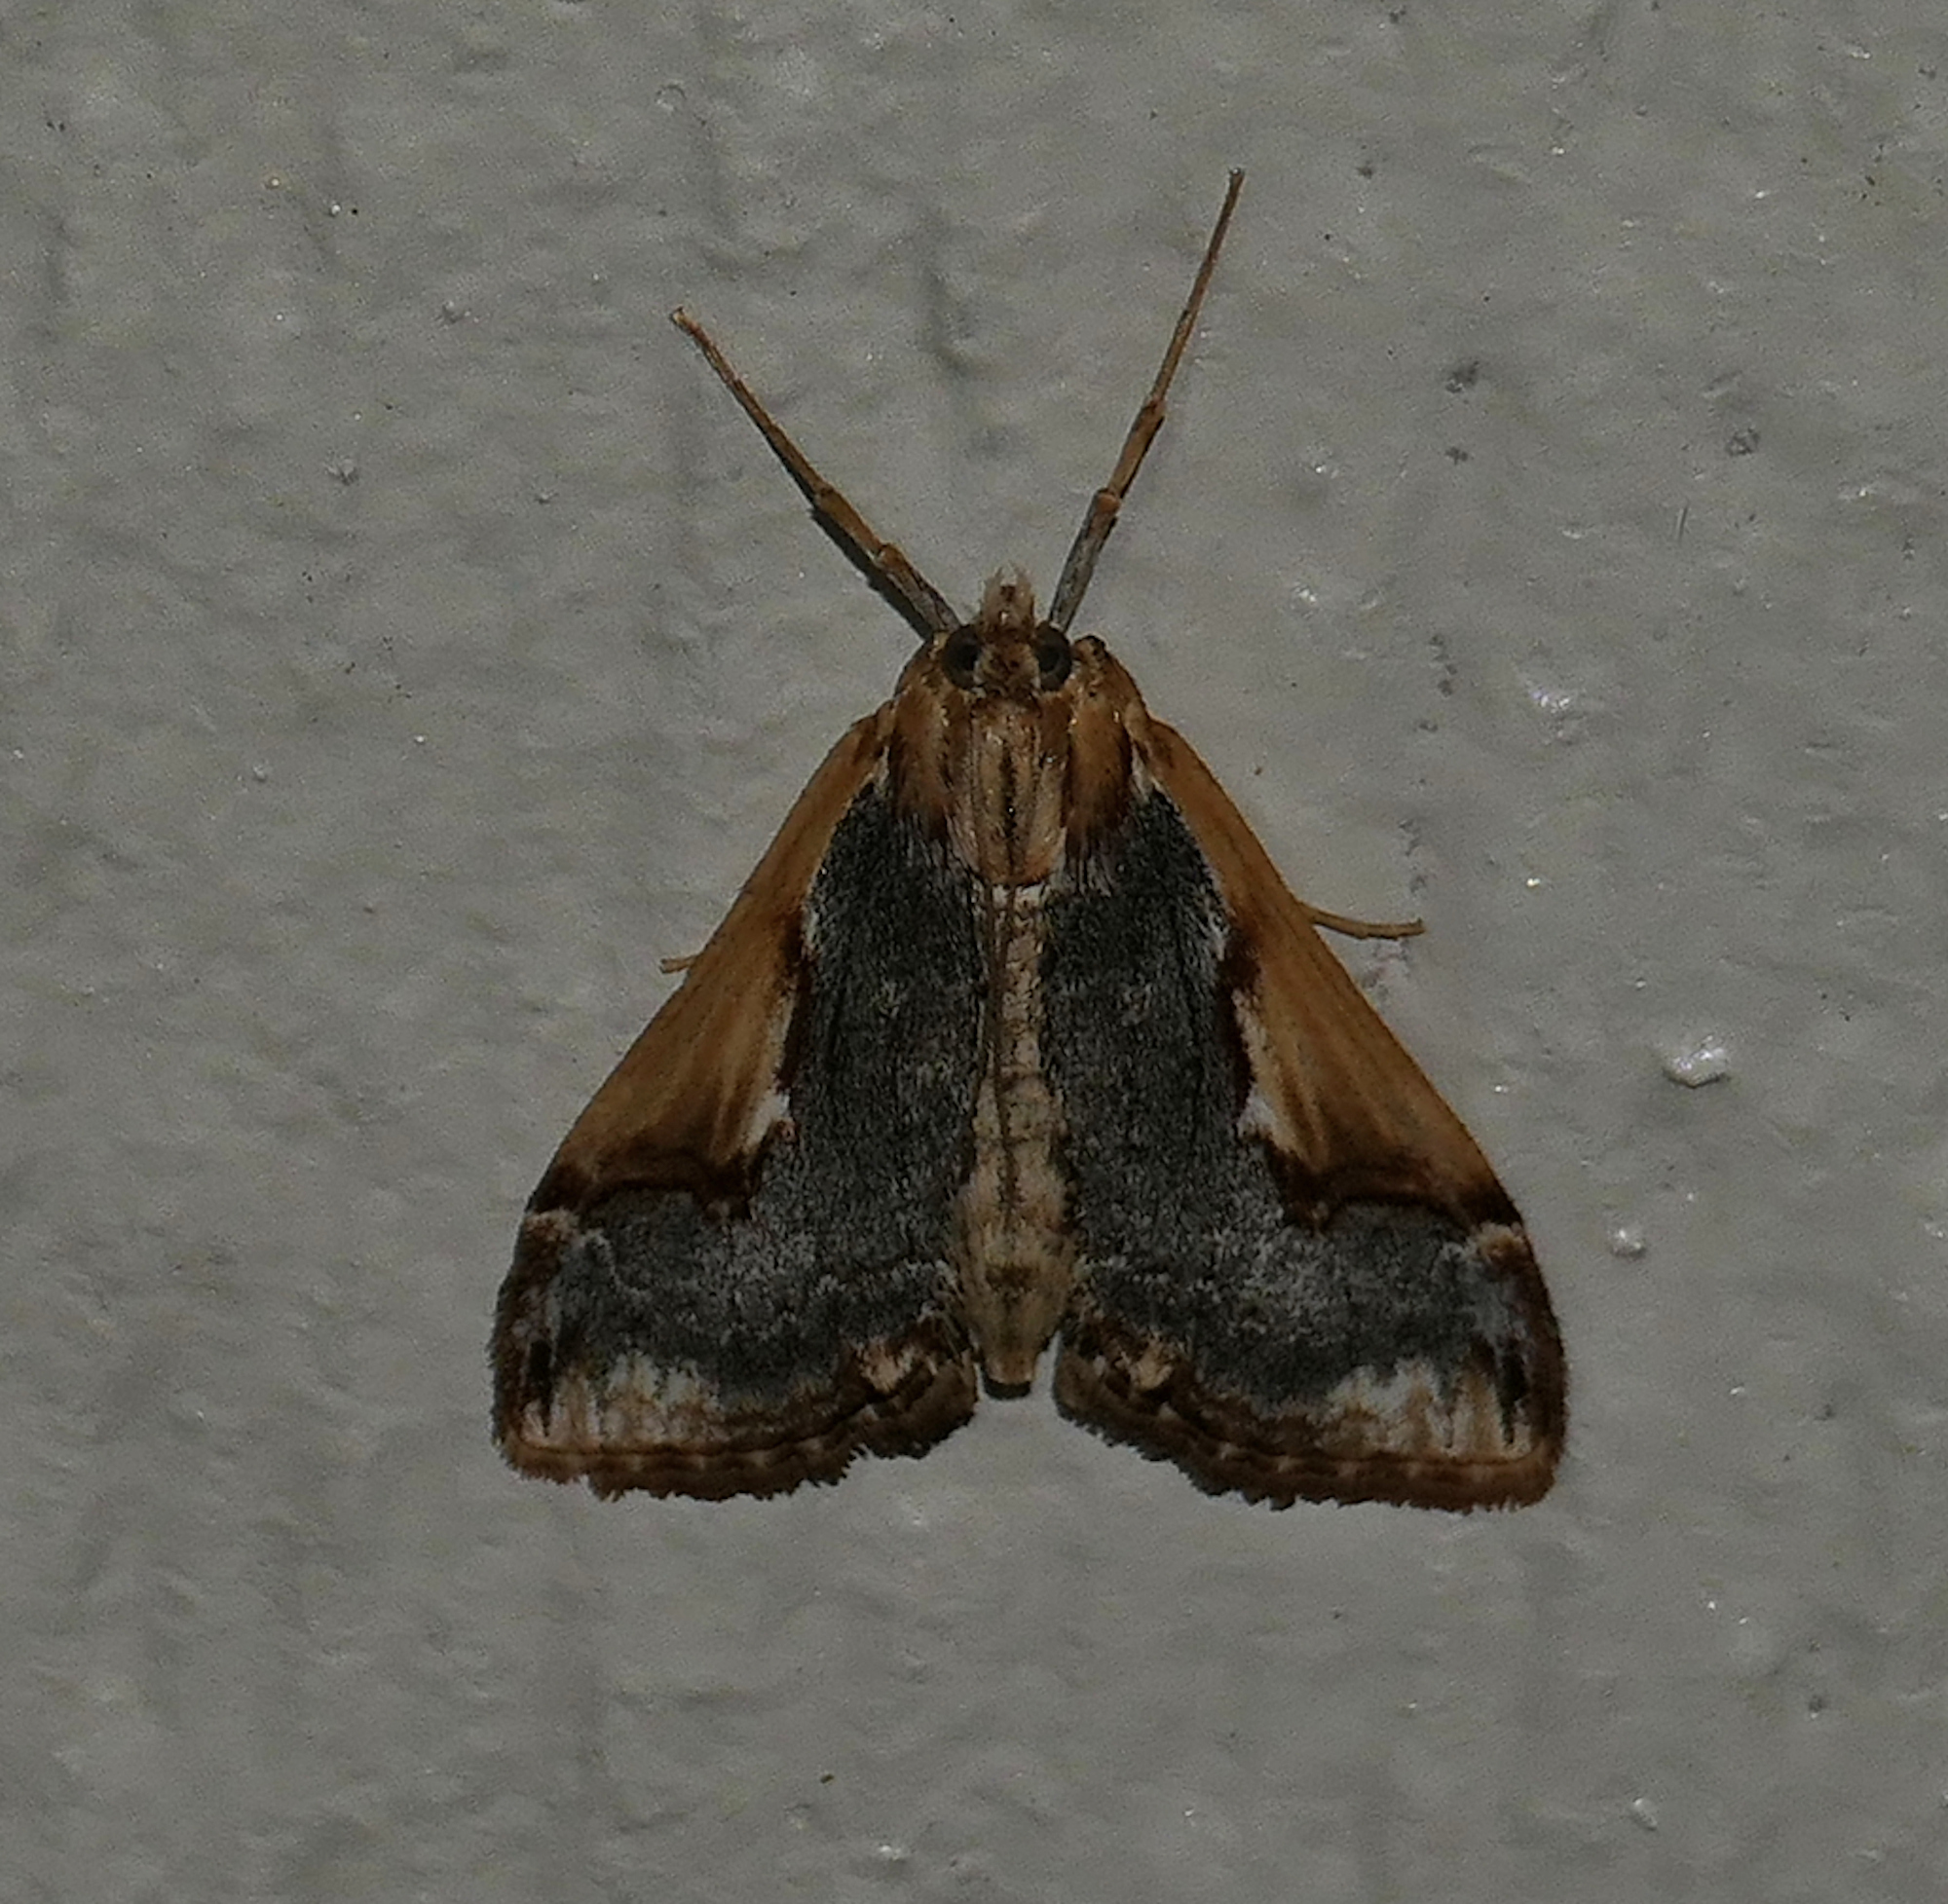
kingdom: Animalia
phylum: Arthropoda
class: Insecta
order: Lepidoptera
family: Crambidae
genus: Loxostege
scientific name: Loxostege albiceralis
